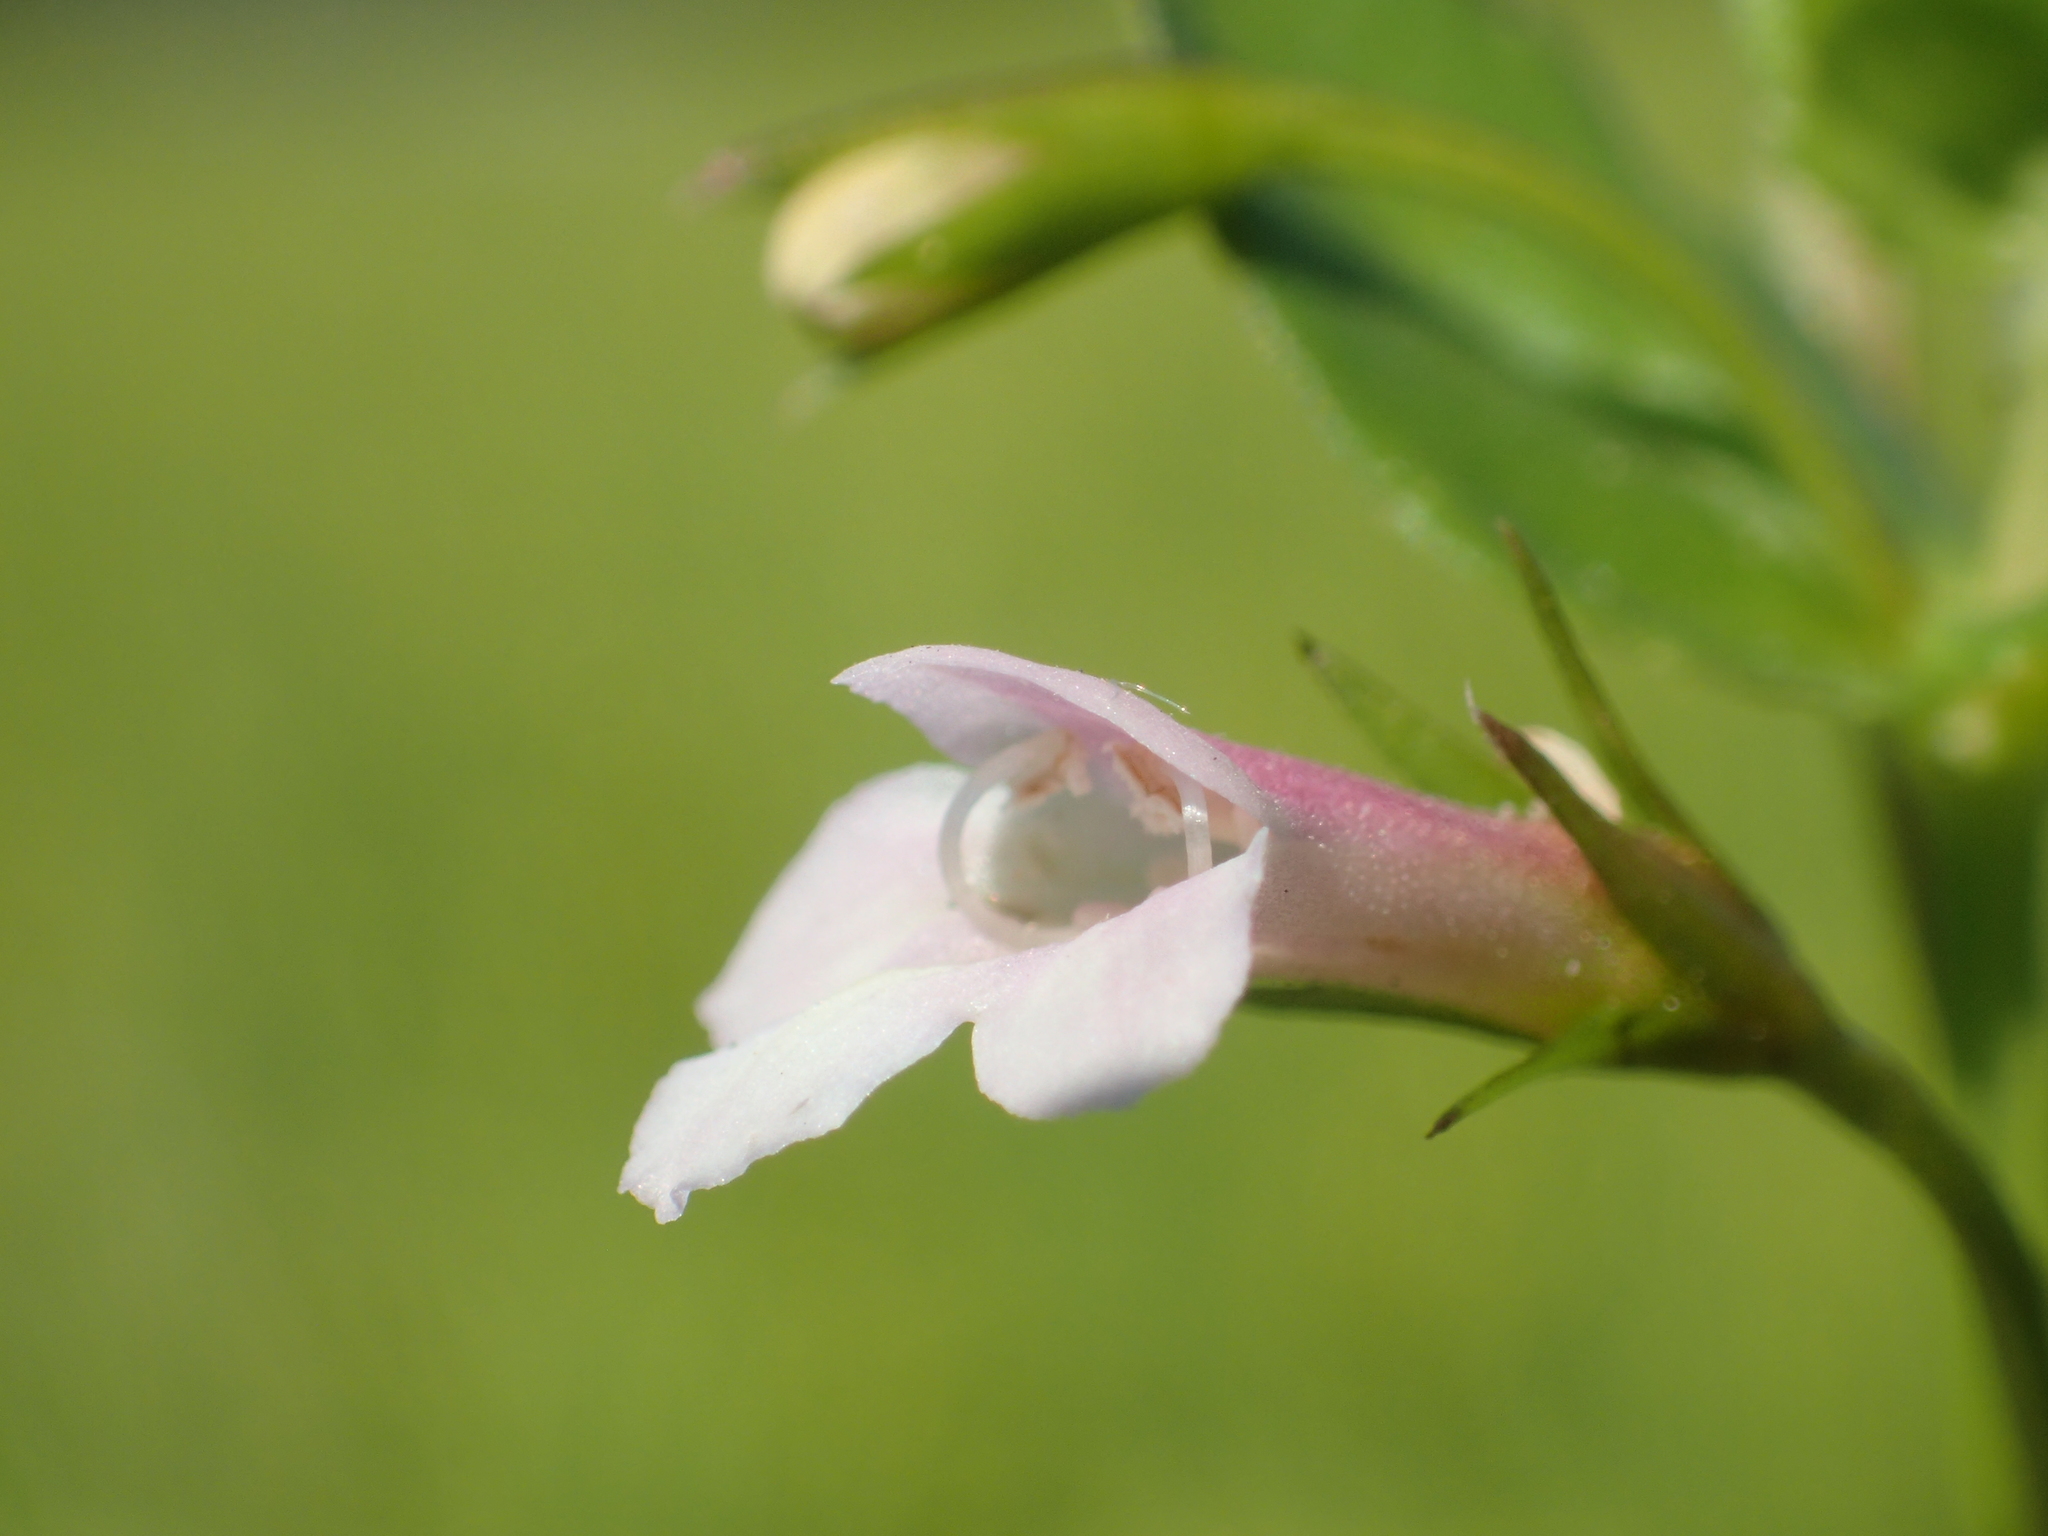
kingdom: Plantae
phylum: Tracheophyta
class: Magnoliopsida
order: Lamiales
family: Linderniaceae
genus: Torenia
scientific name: Torenia anagallis
